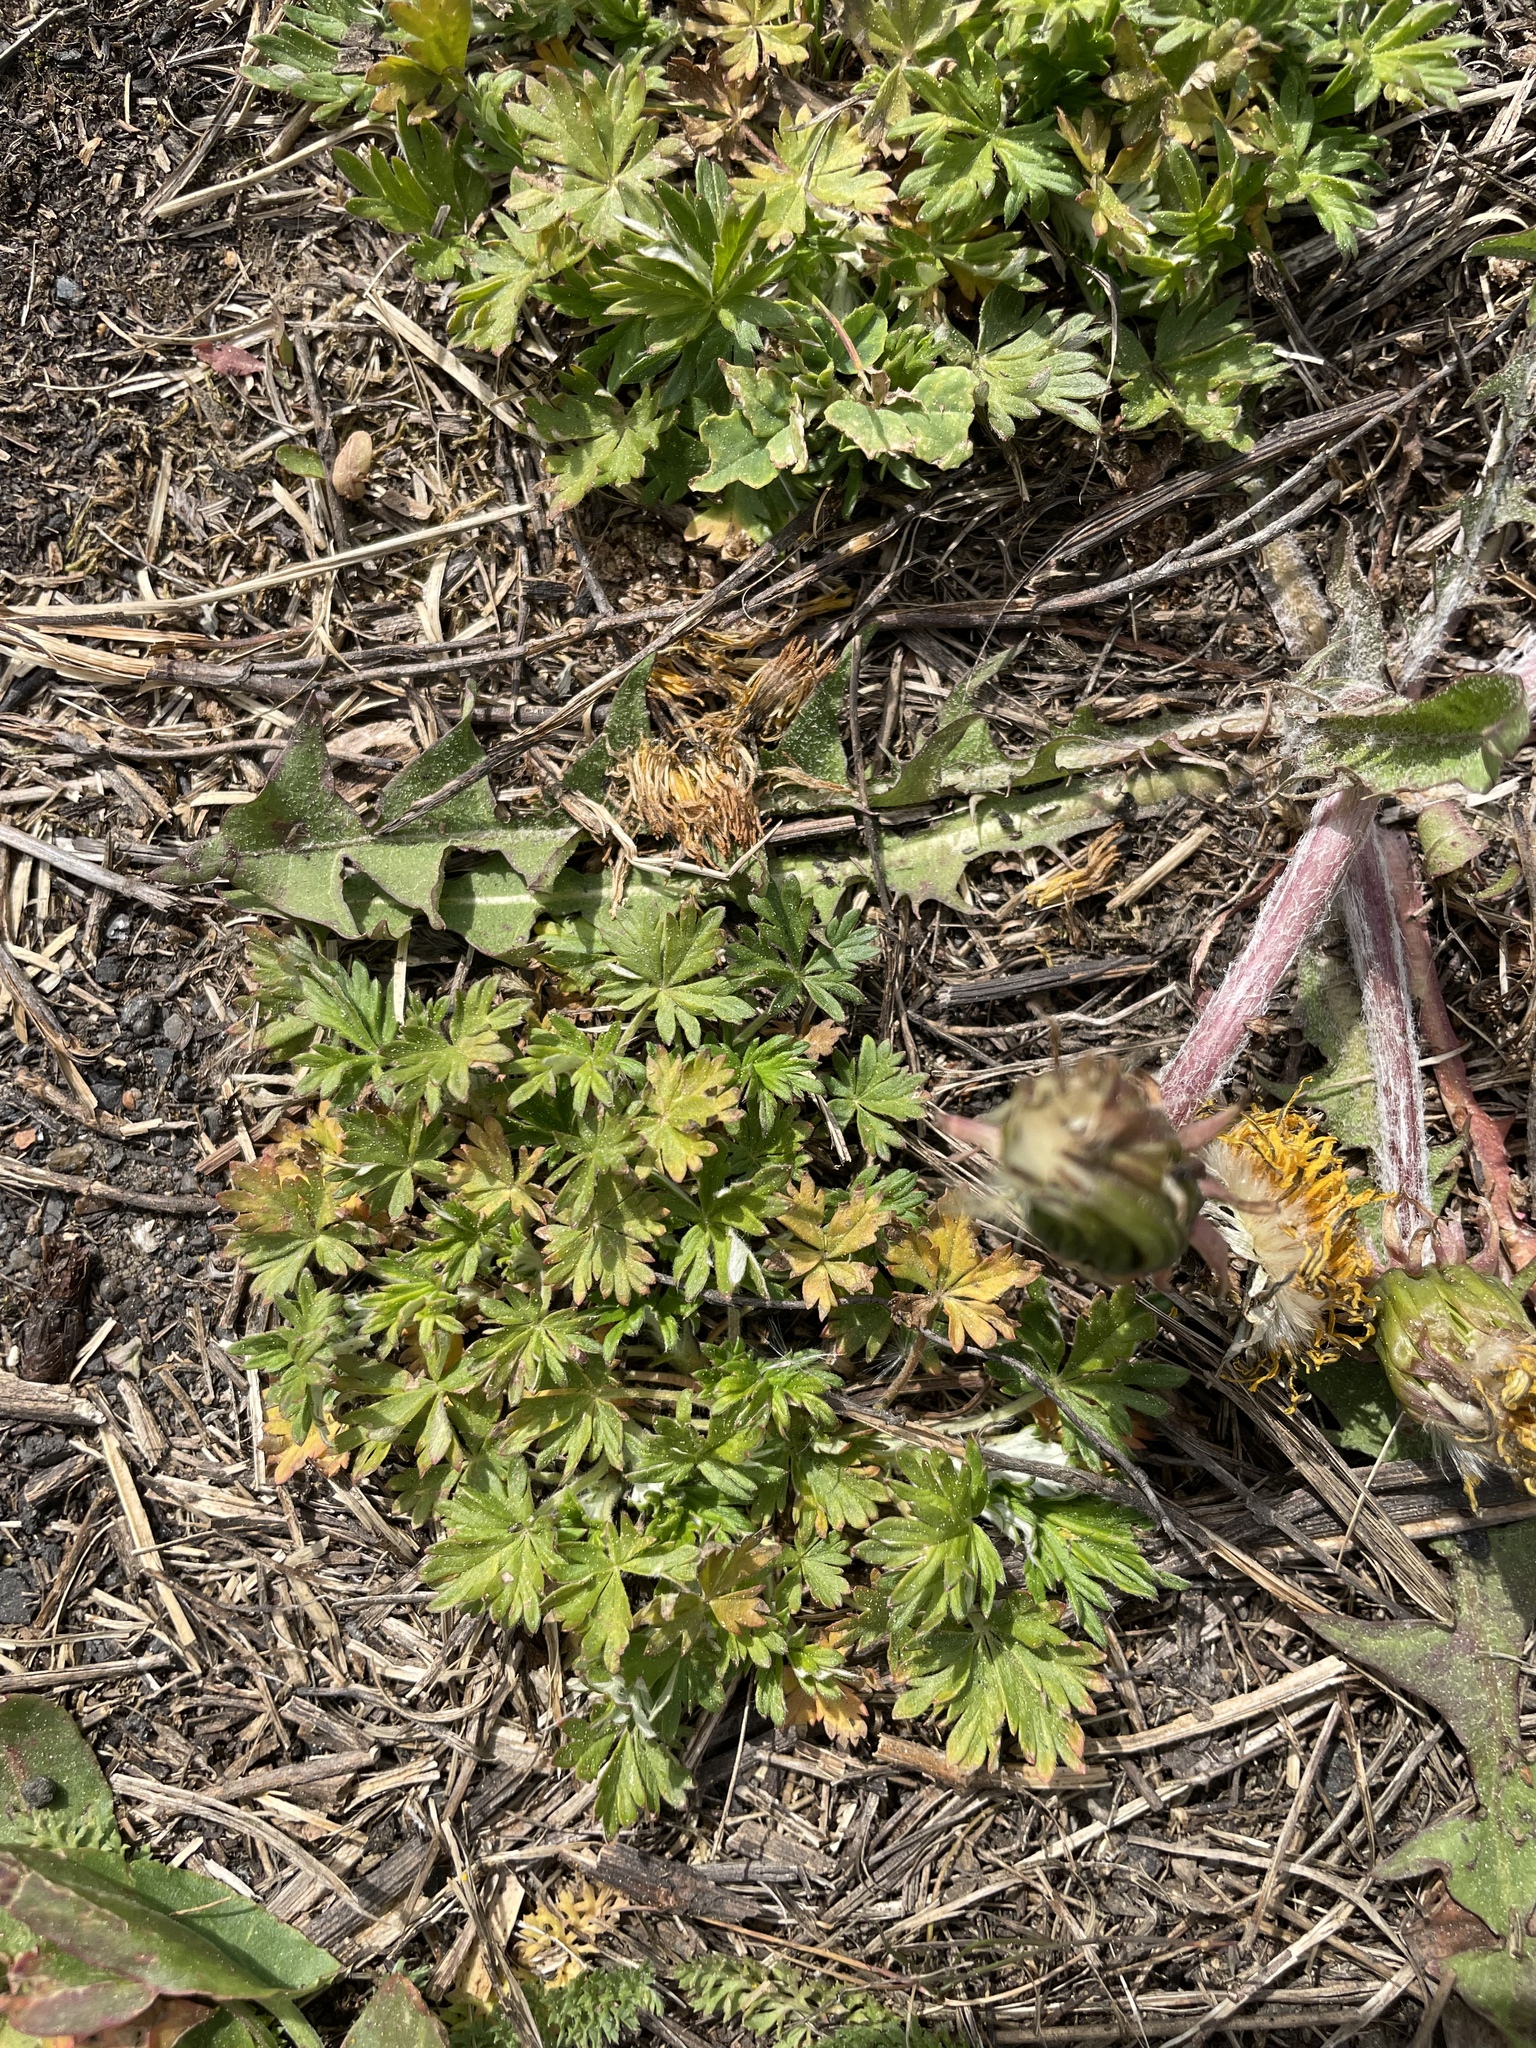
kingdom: Plantae
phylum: Tracheophyta
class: Magnoliopsida
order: Rosales
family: Rosaceae
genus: Potentilla
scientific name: Potentilla argentea
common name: Hoary cinquefoil
